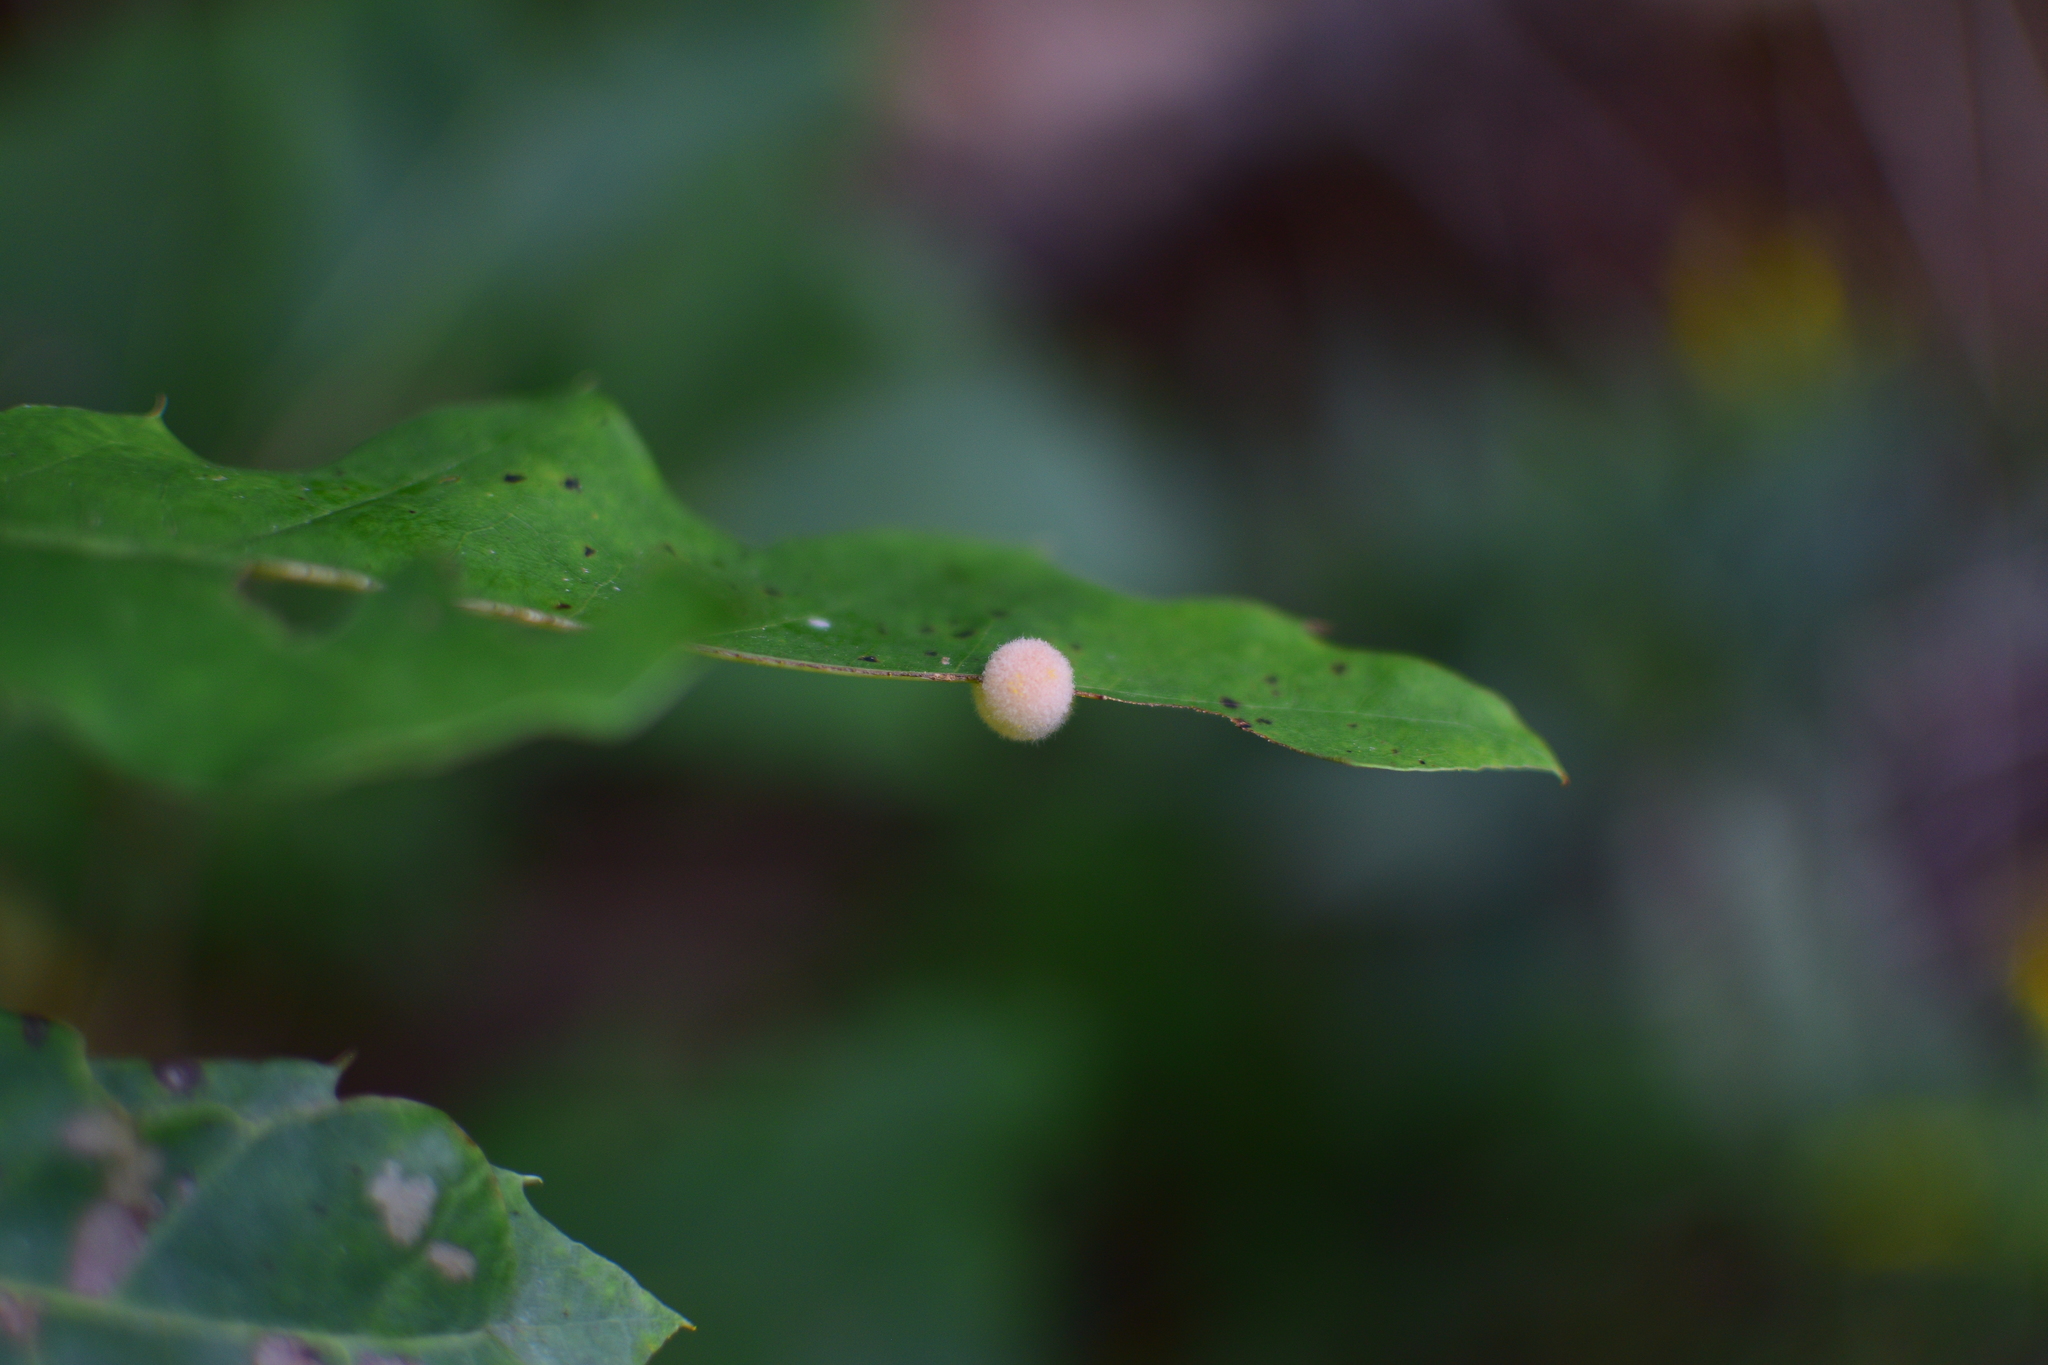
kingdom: Animalia
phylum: Arthropoda
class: Insecta
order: Hymenoptera
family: Cynipidae
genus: Callirhytis
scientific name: Callirhytis
